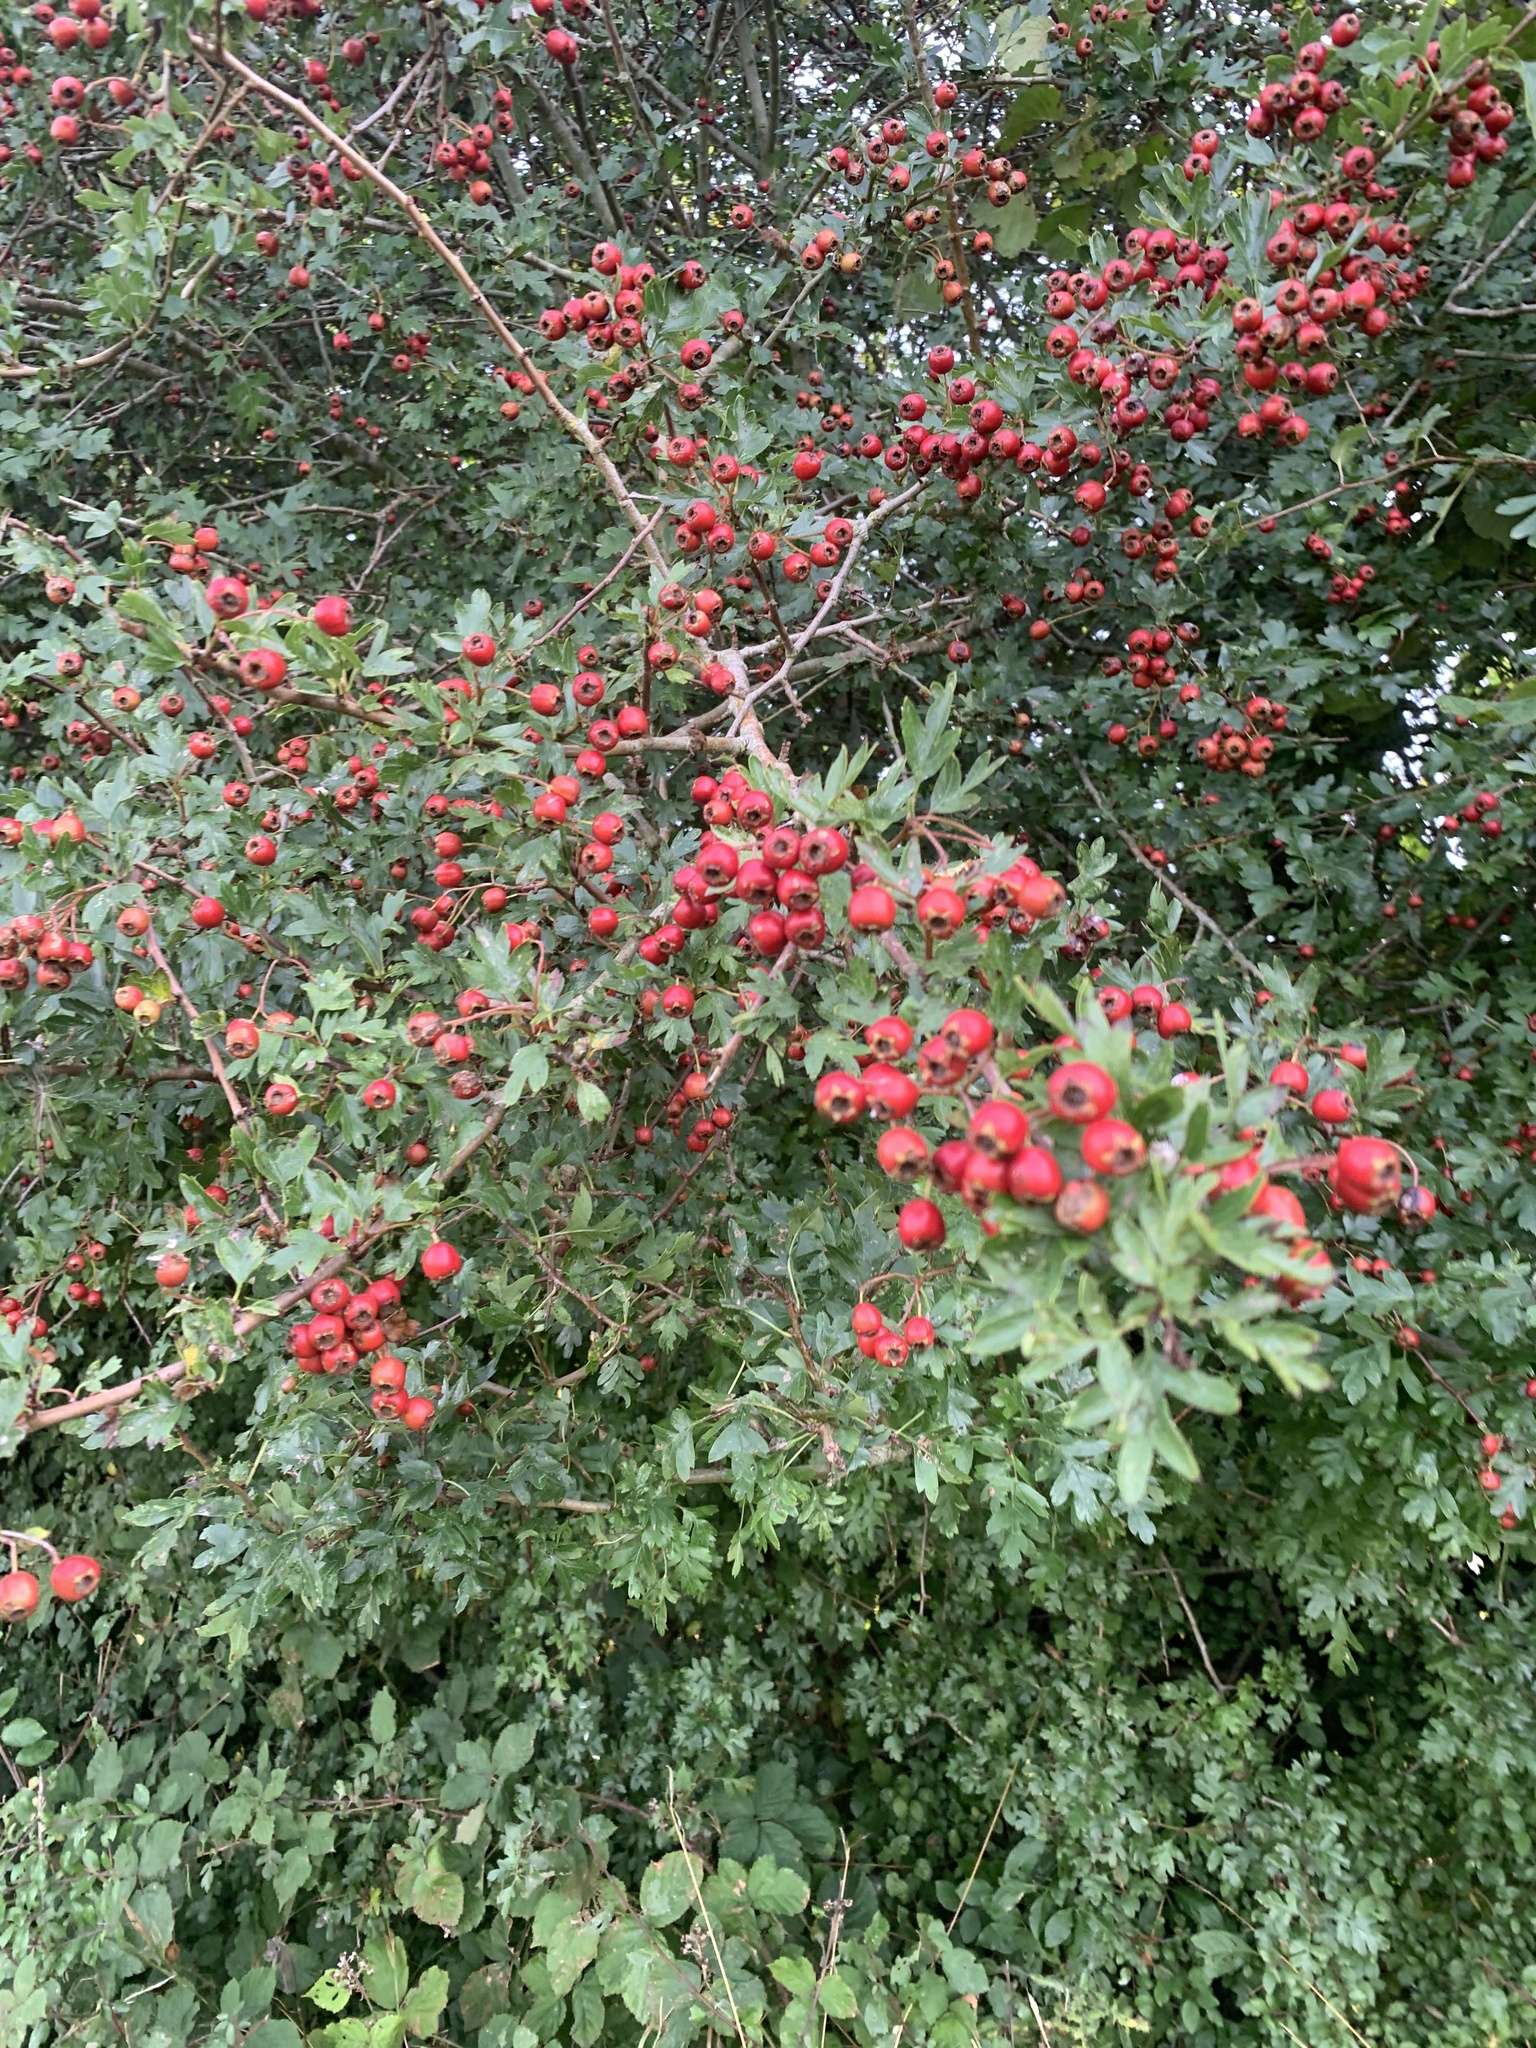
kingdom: Plantae
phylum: Tracheophyta
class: Magnoliopsida
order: Rosales
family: Rosaceae
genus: Crataegus
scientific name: Crataegus monogyna
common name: Hawthorn
